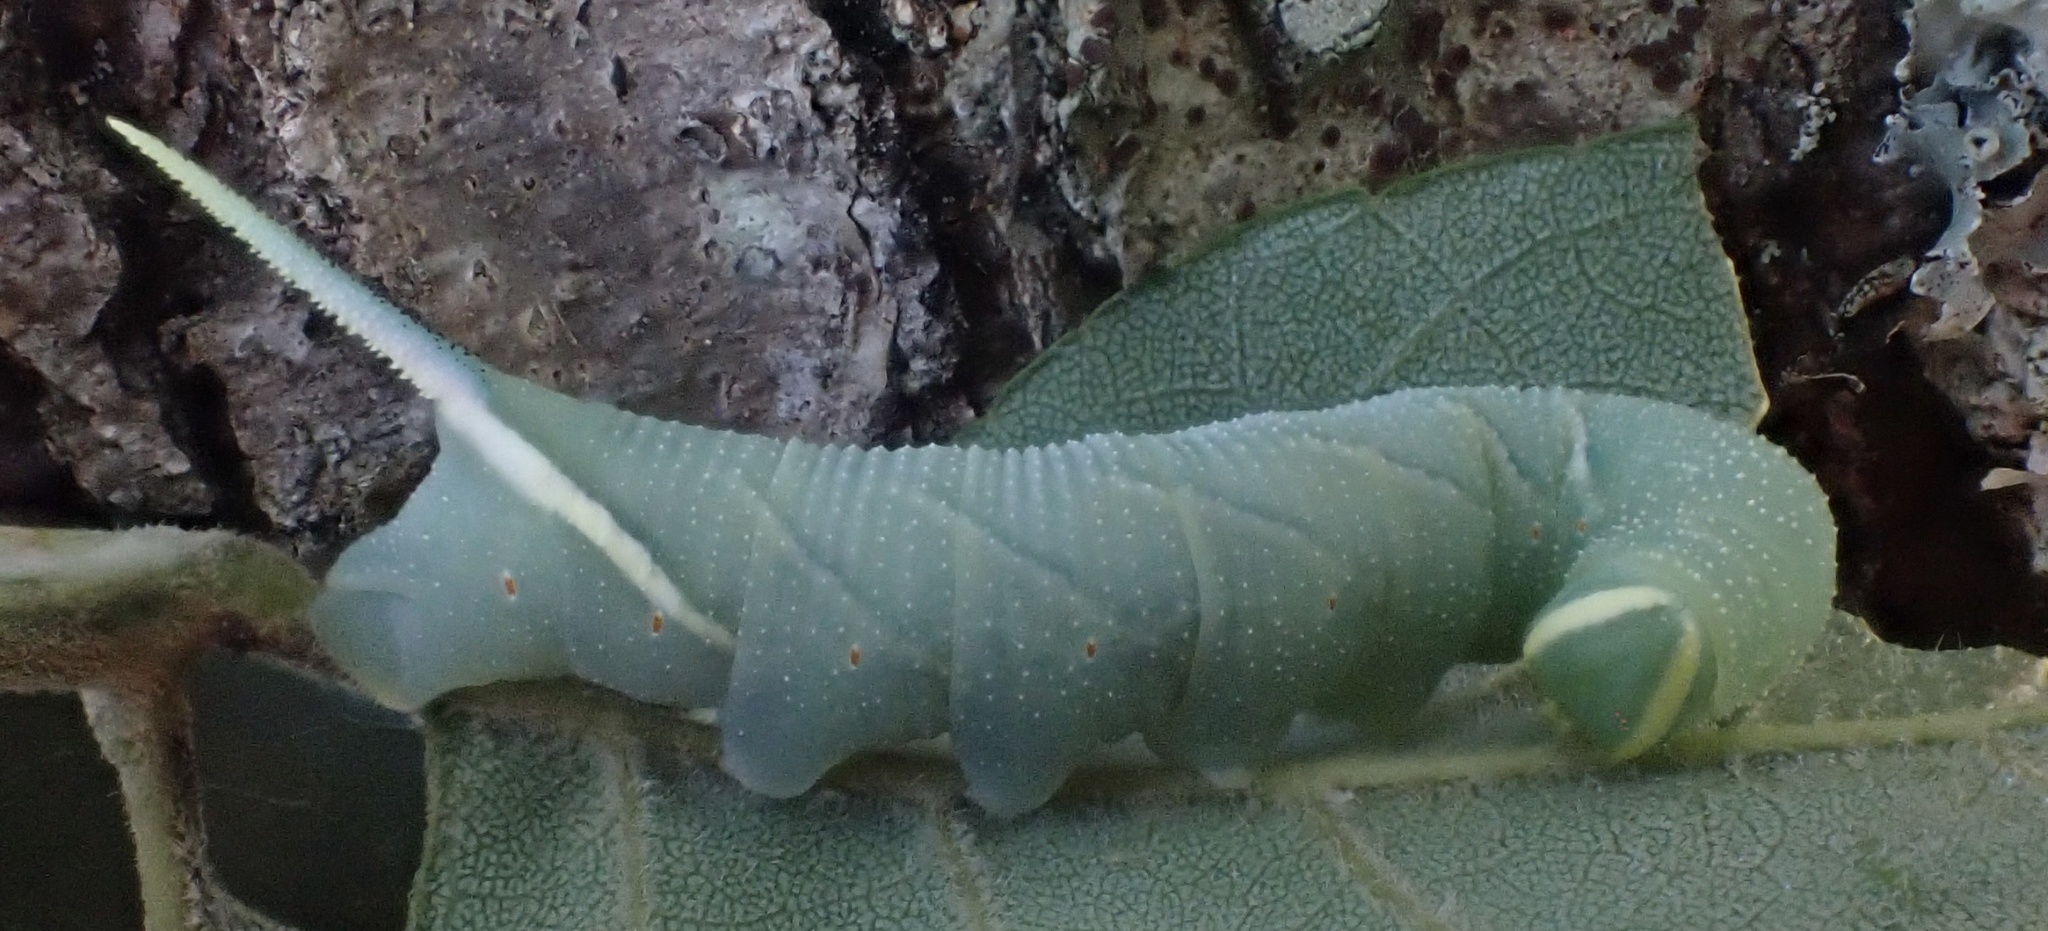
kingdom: Animalia
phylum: Arthropoda
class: Insecta
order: Lepidoptera
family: Sphingidae
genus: Ceratomia
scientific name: Ceratomia undulosa
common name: Waved sphinx
